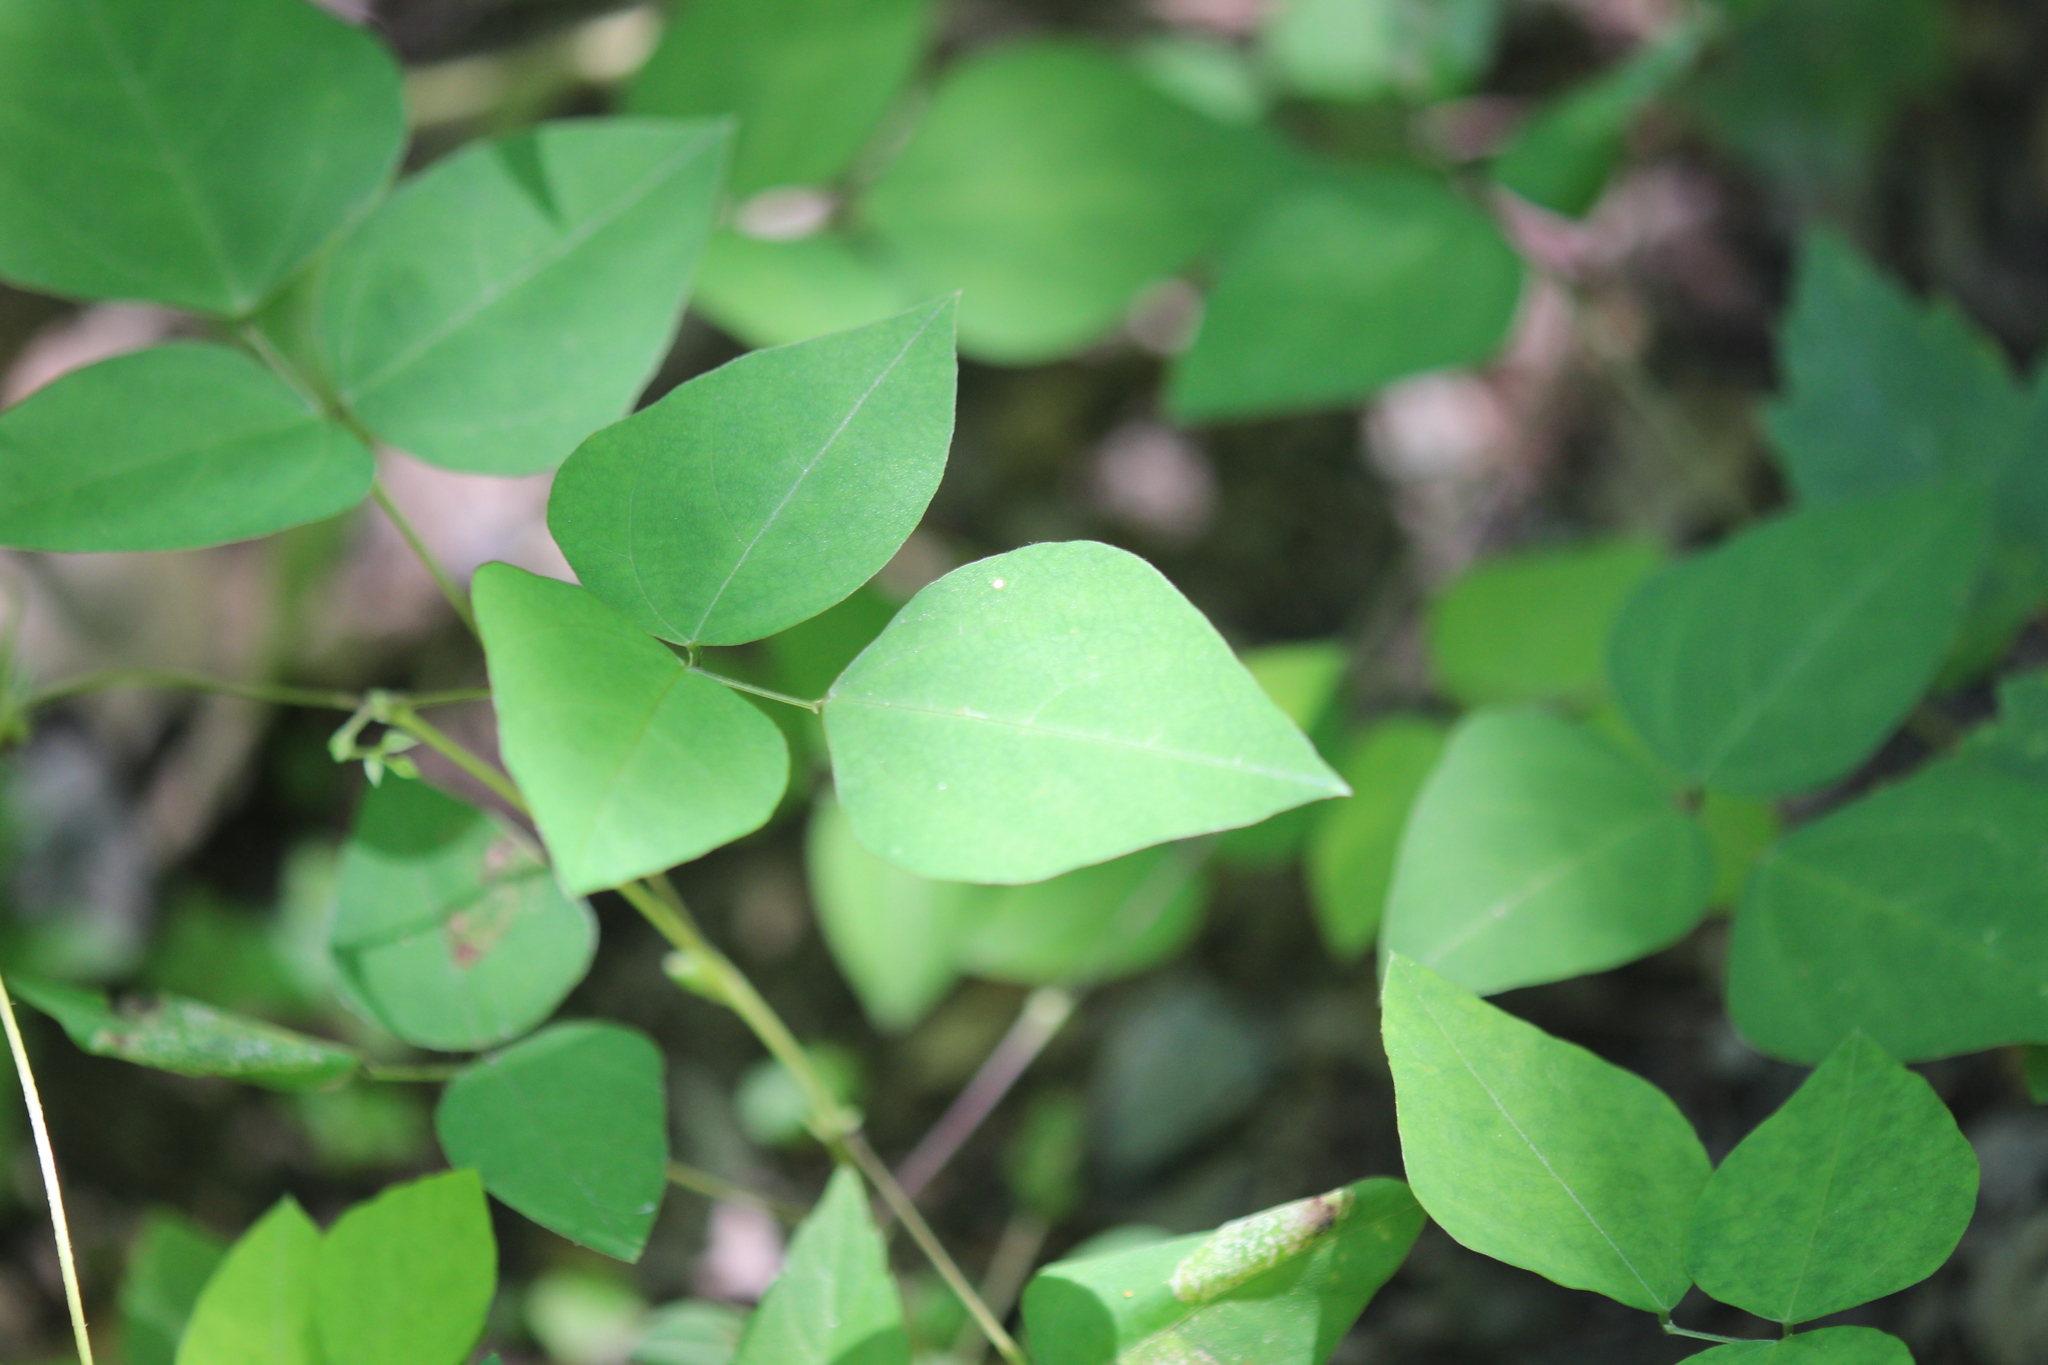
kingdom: Plantae
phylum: Tracheophyta
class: Magnoliopsida
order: Fabales
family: Fabaceae
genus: Amphicarpaea
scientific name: Amphicarpaea bracteata
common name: American hog peanut
